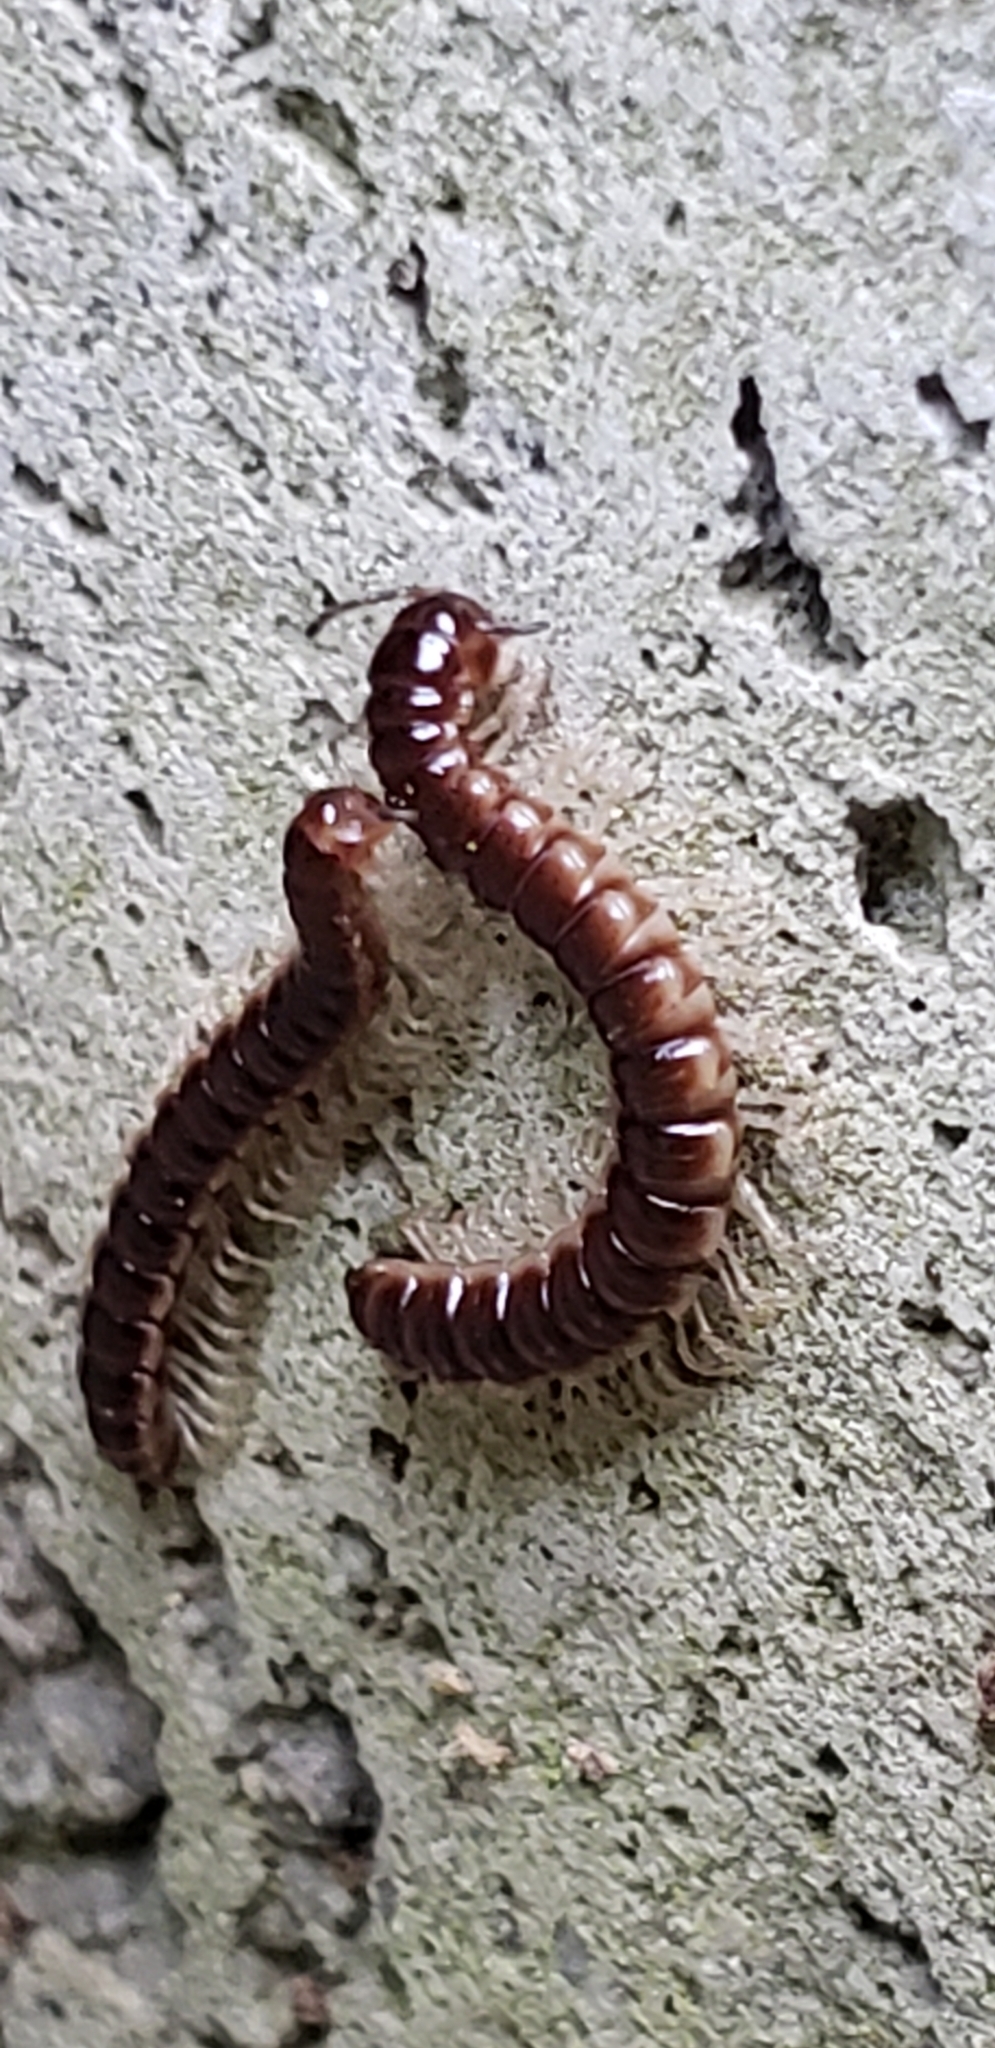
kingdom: Animalia
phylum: Arthropoda
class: Diplopoda
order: Polydesmida
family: Paradoxosomatidae
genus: Oxidus
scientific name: Oxidus gracilis
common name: Greenhouse millipede
